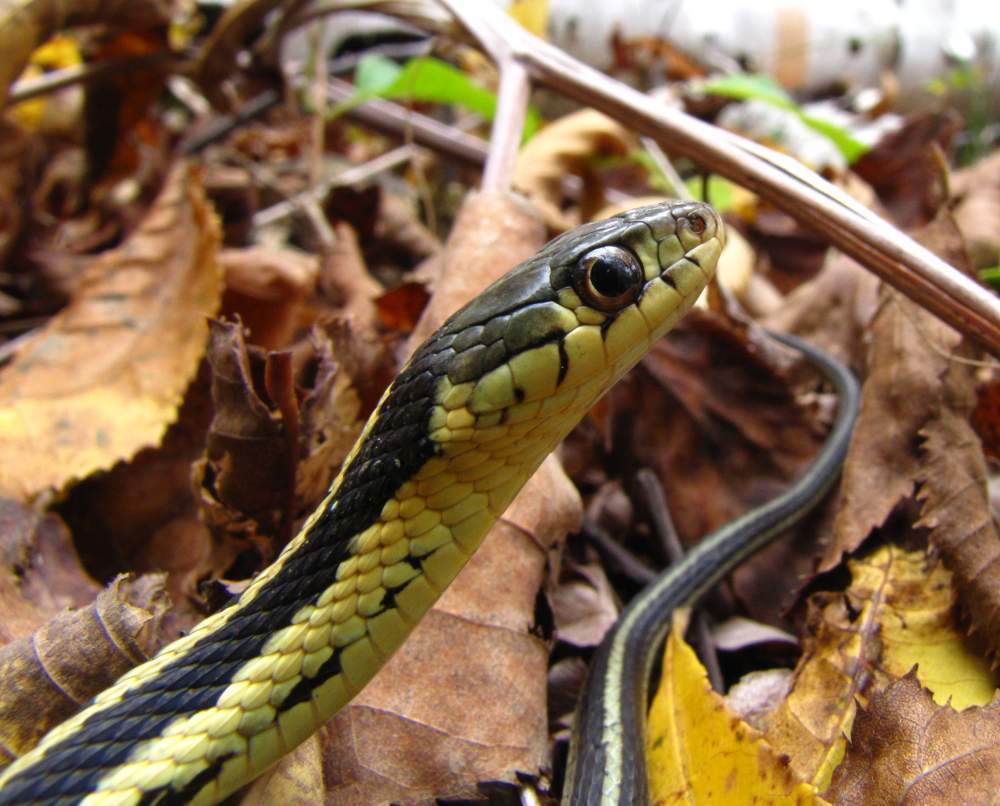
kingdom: Animalia
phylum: Chordata
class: Squamata
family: Colubridae
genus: Thamnophis
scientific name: Thamnophis sirtalis
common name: Common garter snake
